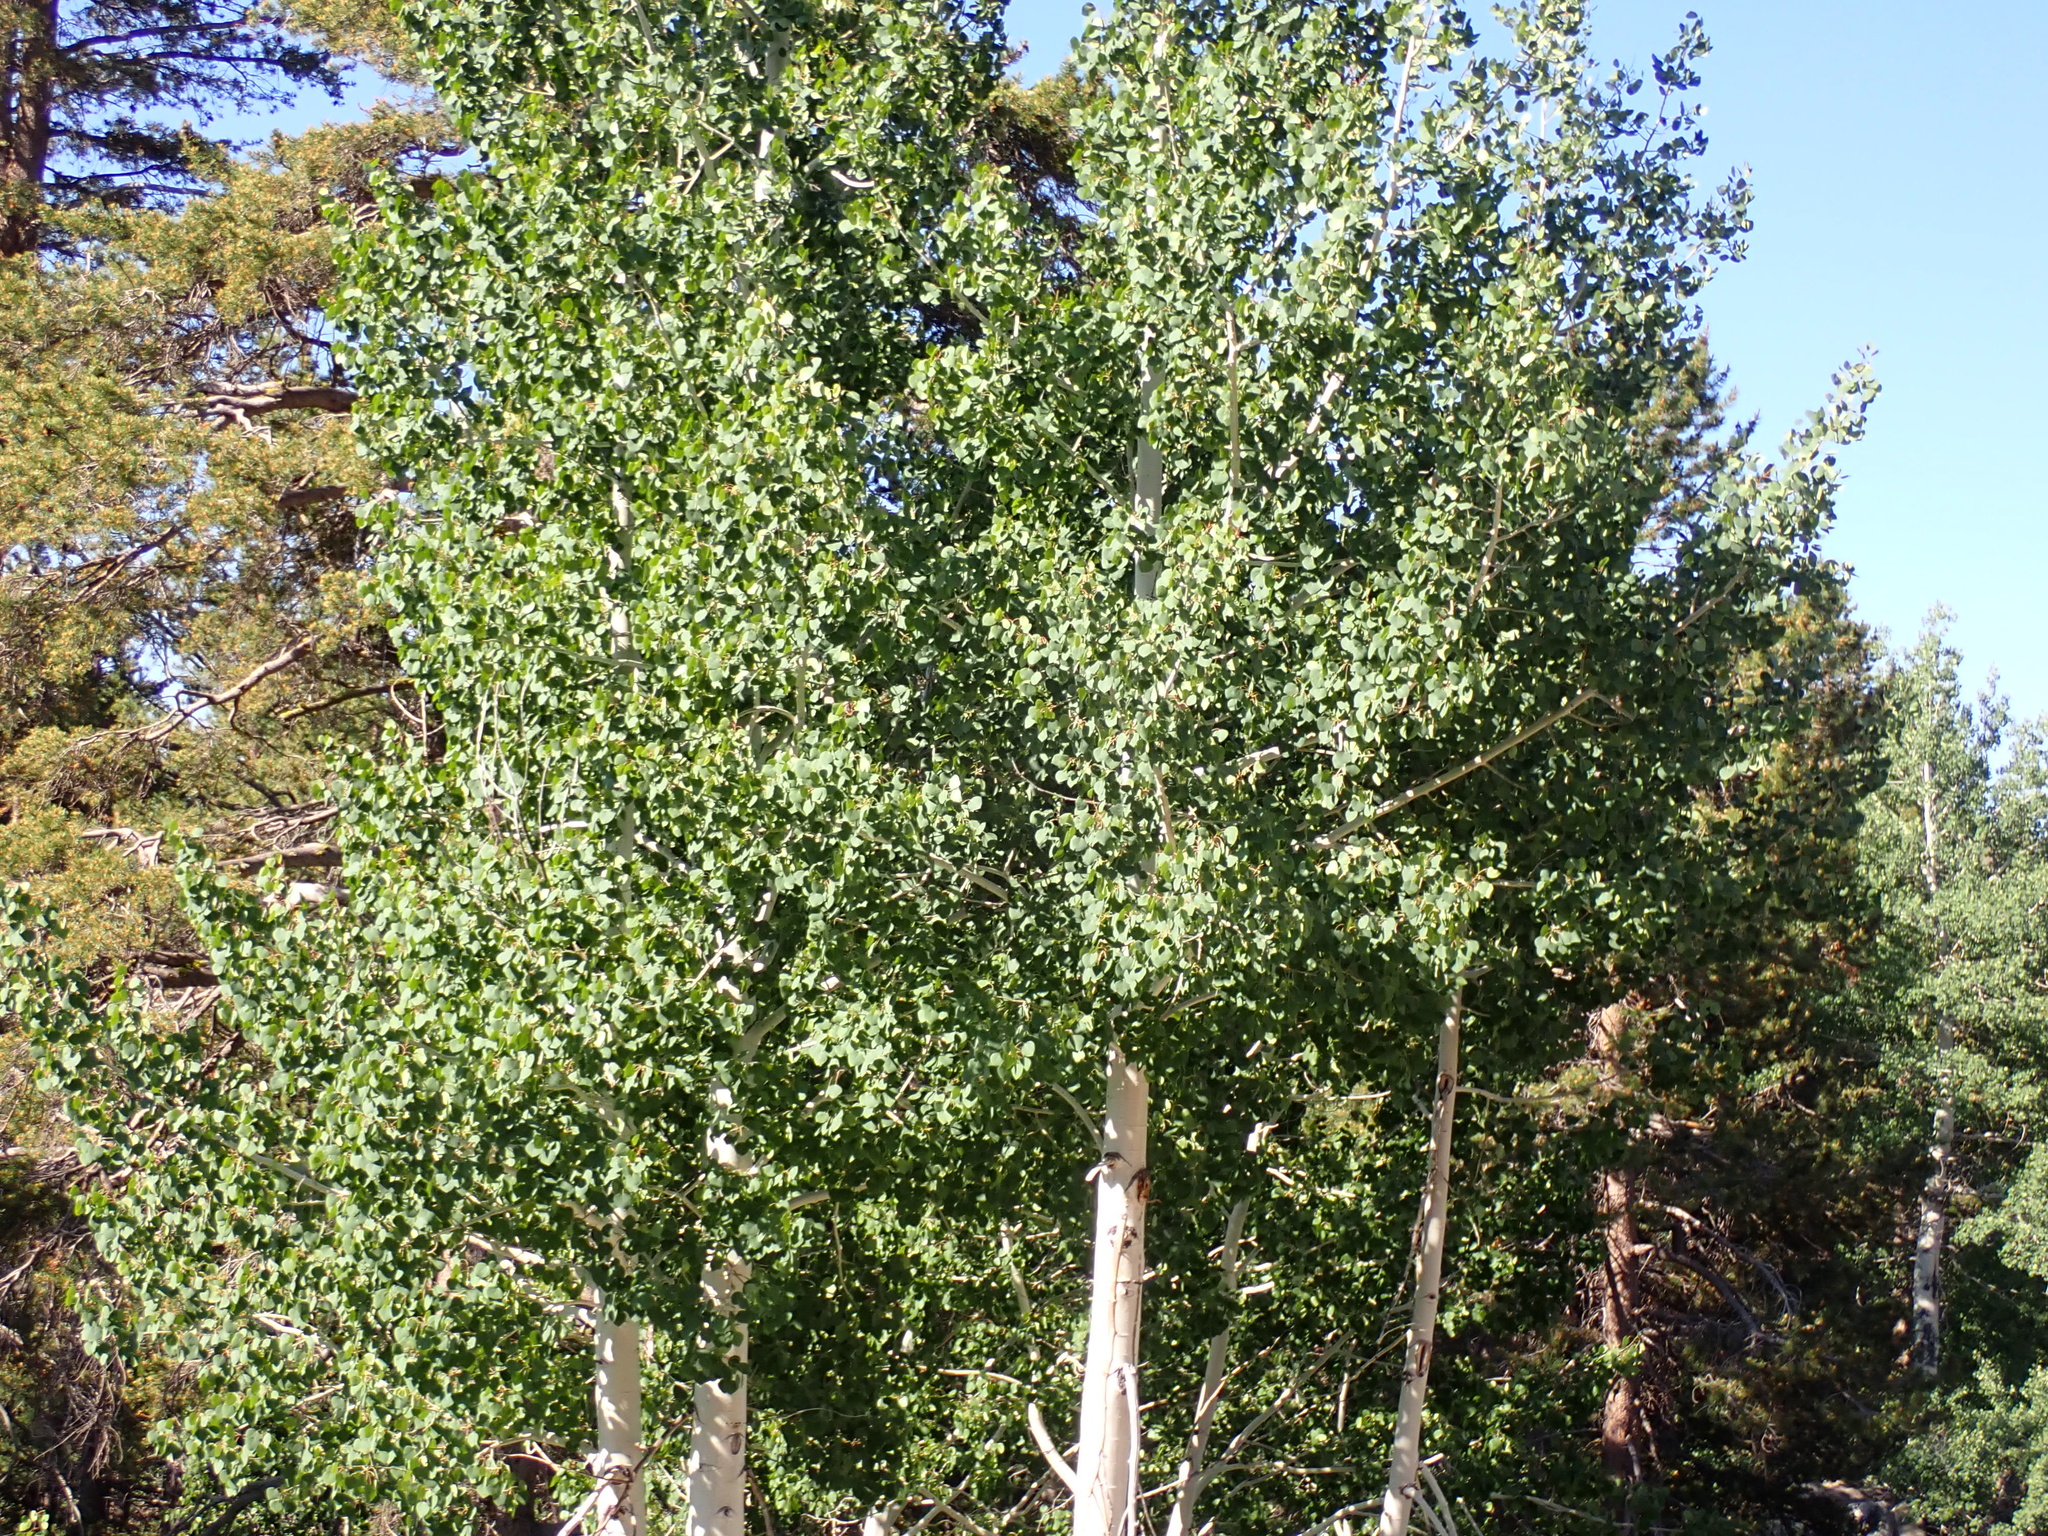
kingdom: Plantae
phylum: Tracheophyta
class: Magnoliopsida
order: Malpighiales
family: Salicaceae
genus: Populus
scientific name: Populus tremuloides
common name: Quaking aspen
